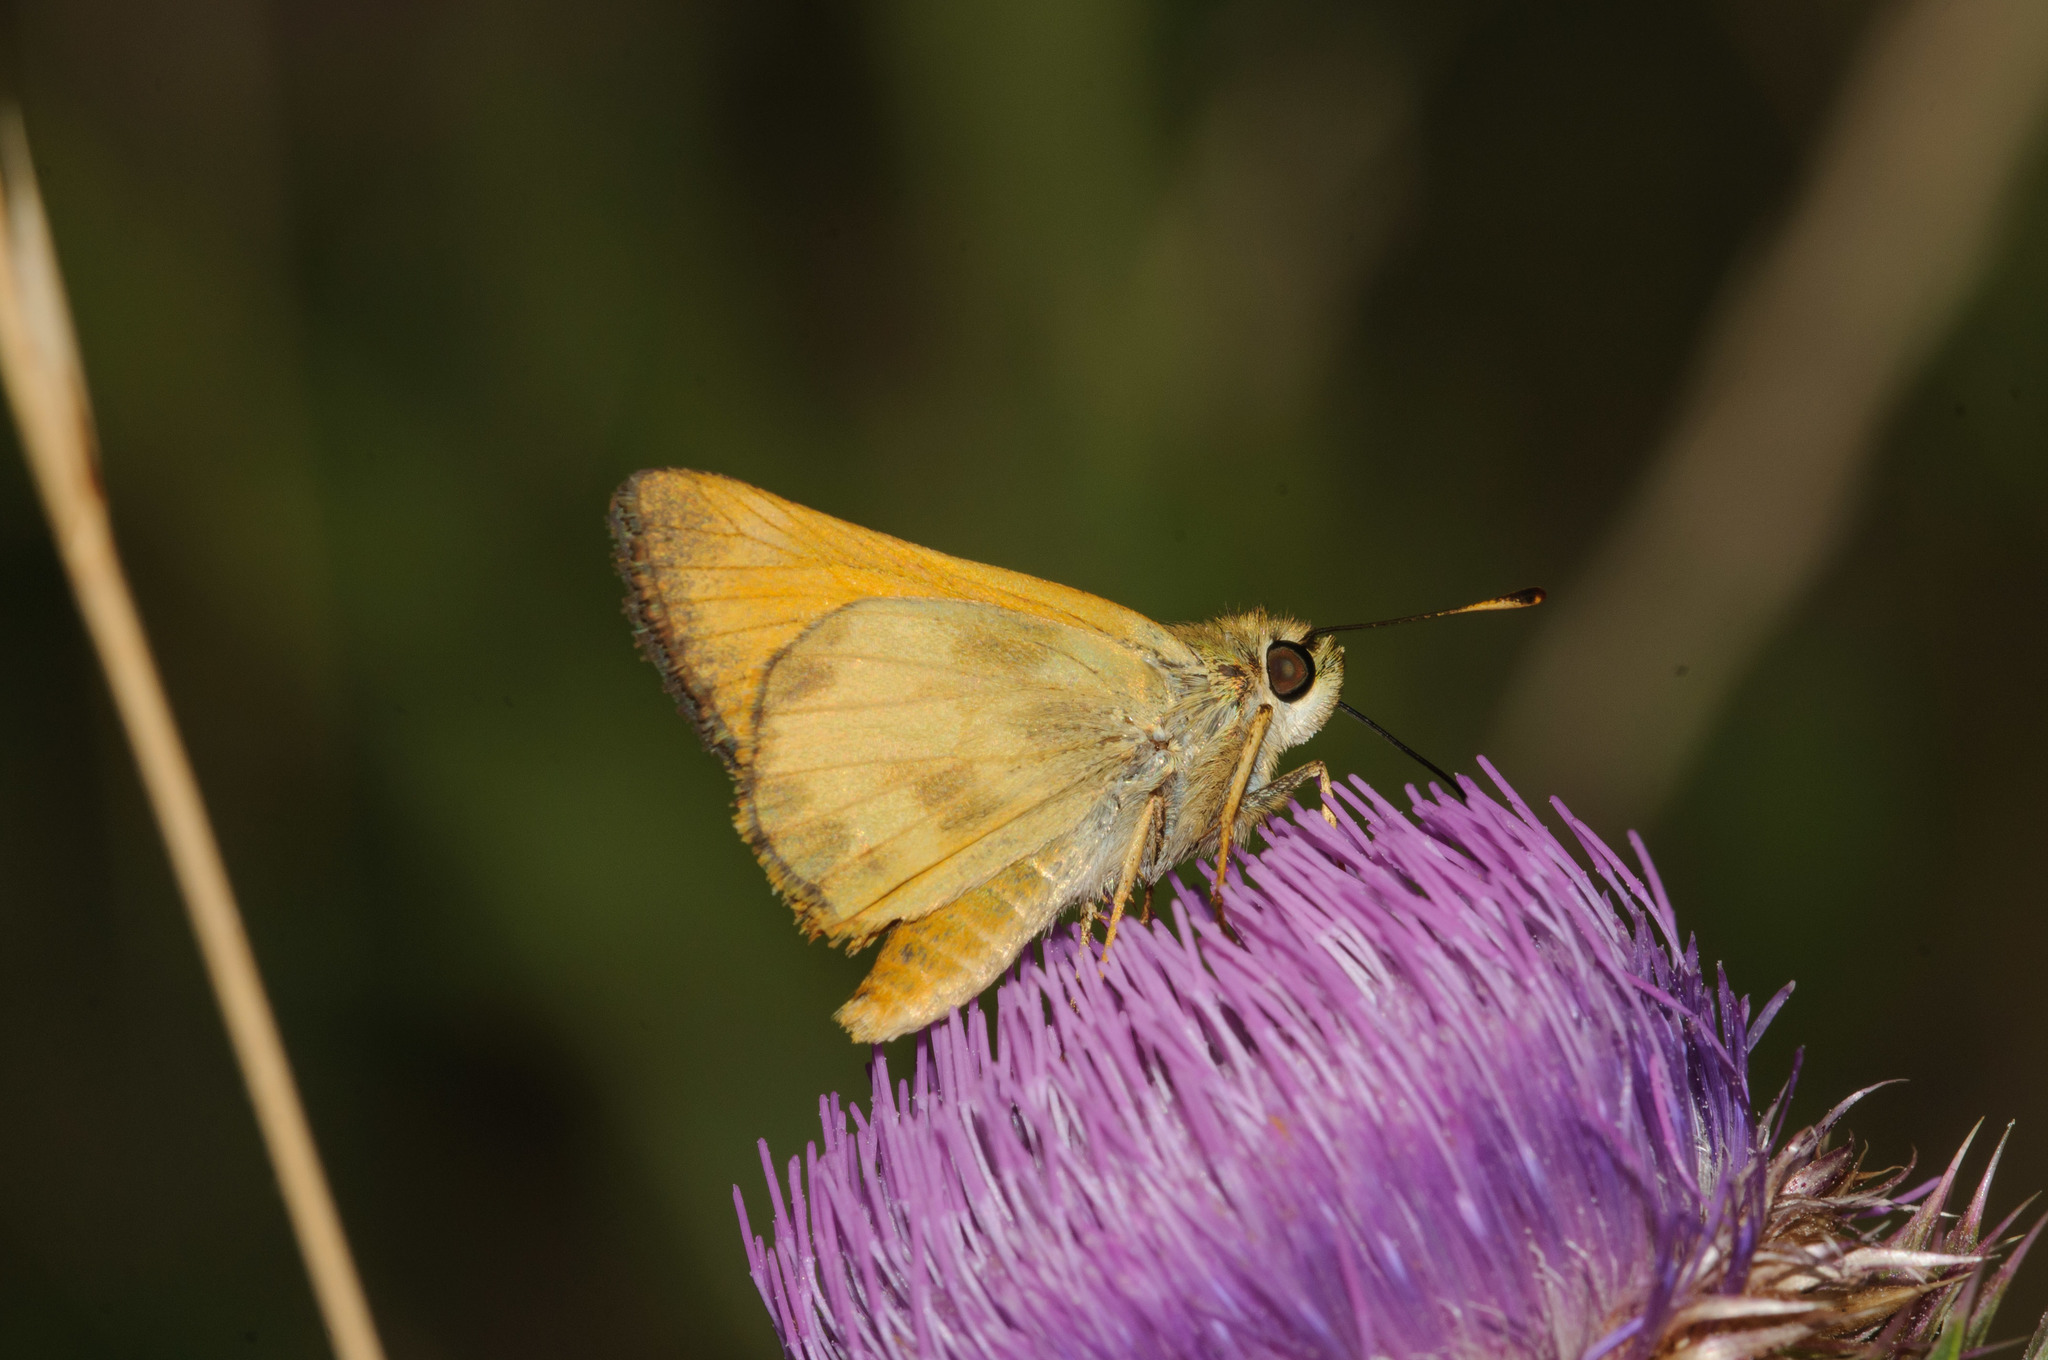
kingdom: Animalia
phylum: Arthropoda
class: Insecta
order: Lepidoptera
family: Hesperiidae
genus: Lon
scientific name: Lon taxiles
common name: Taxiles skipper
